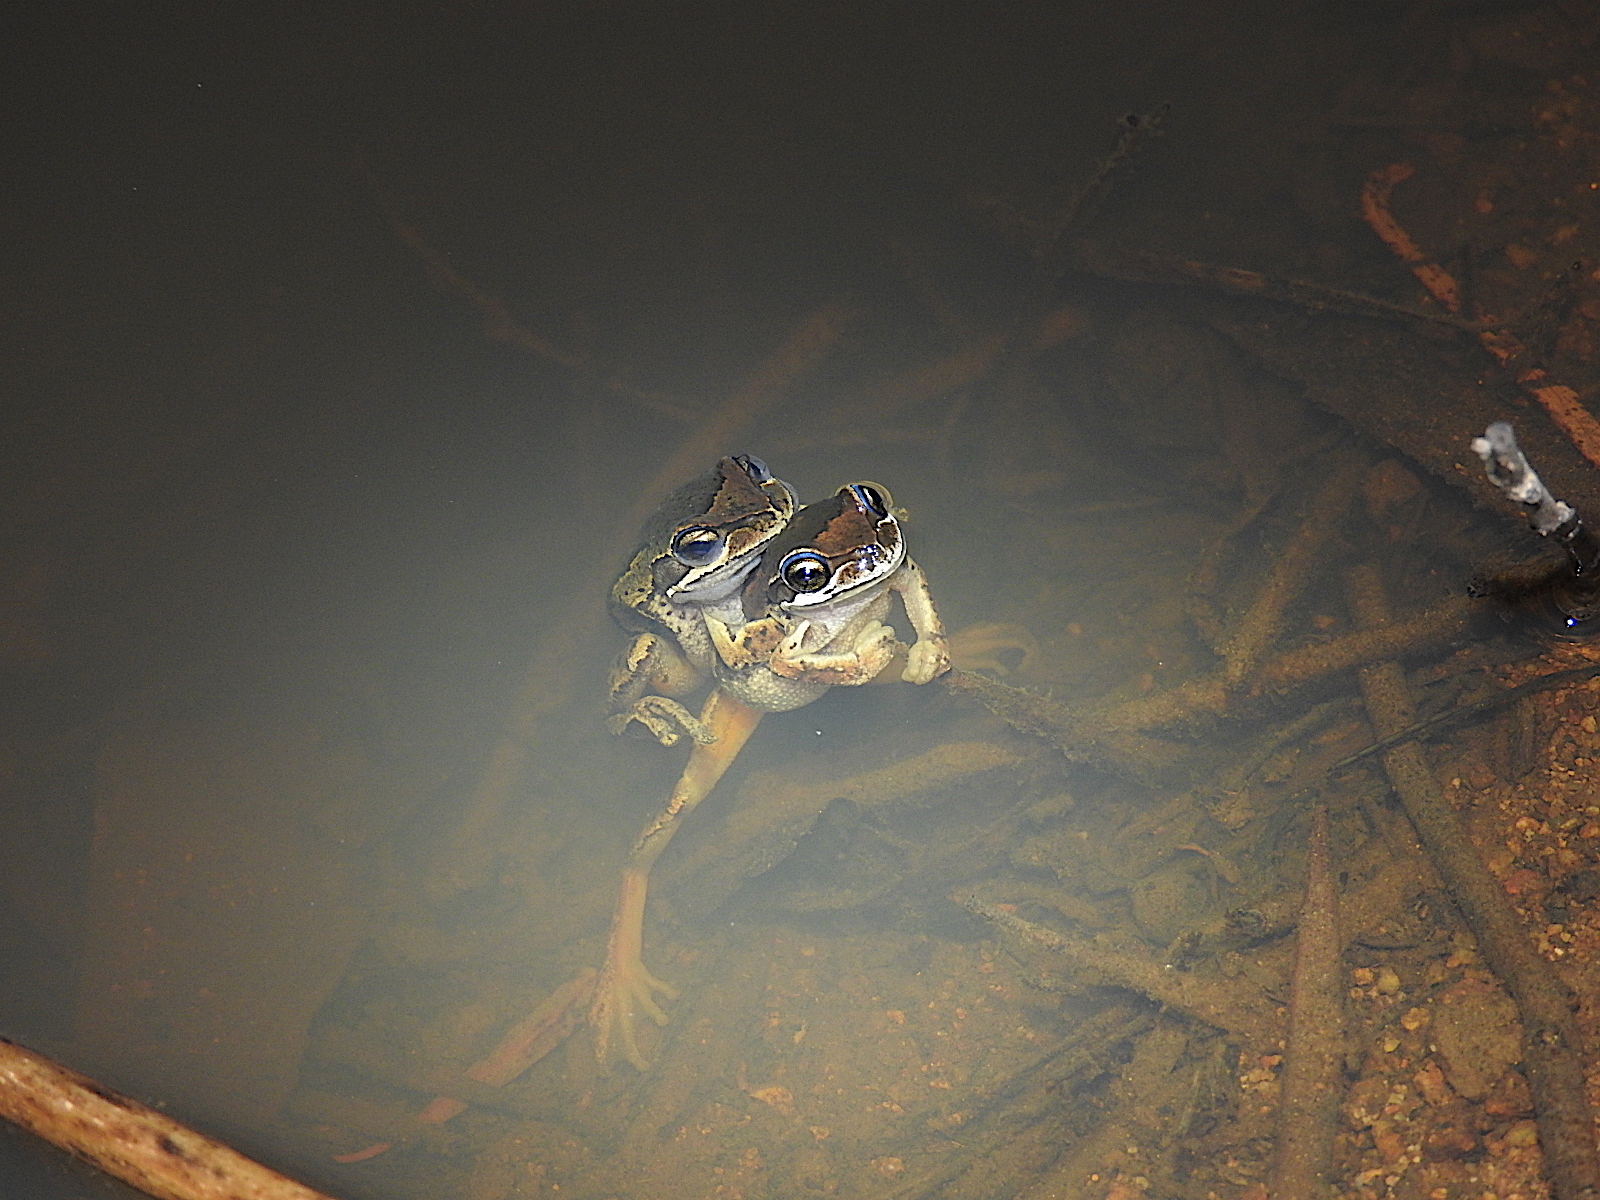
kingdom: Animalia
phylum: Chordata
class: Amphibia
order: Anura
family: Pelodryadidae
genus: Litoria
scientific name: Litoria ewingii
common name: Southern brown tree frog
